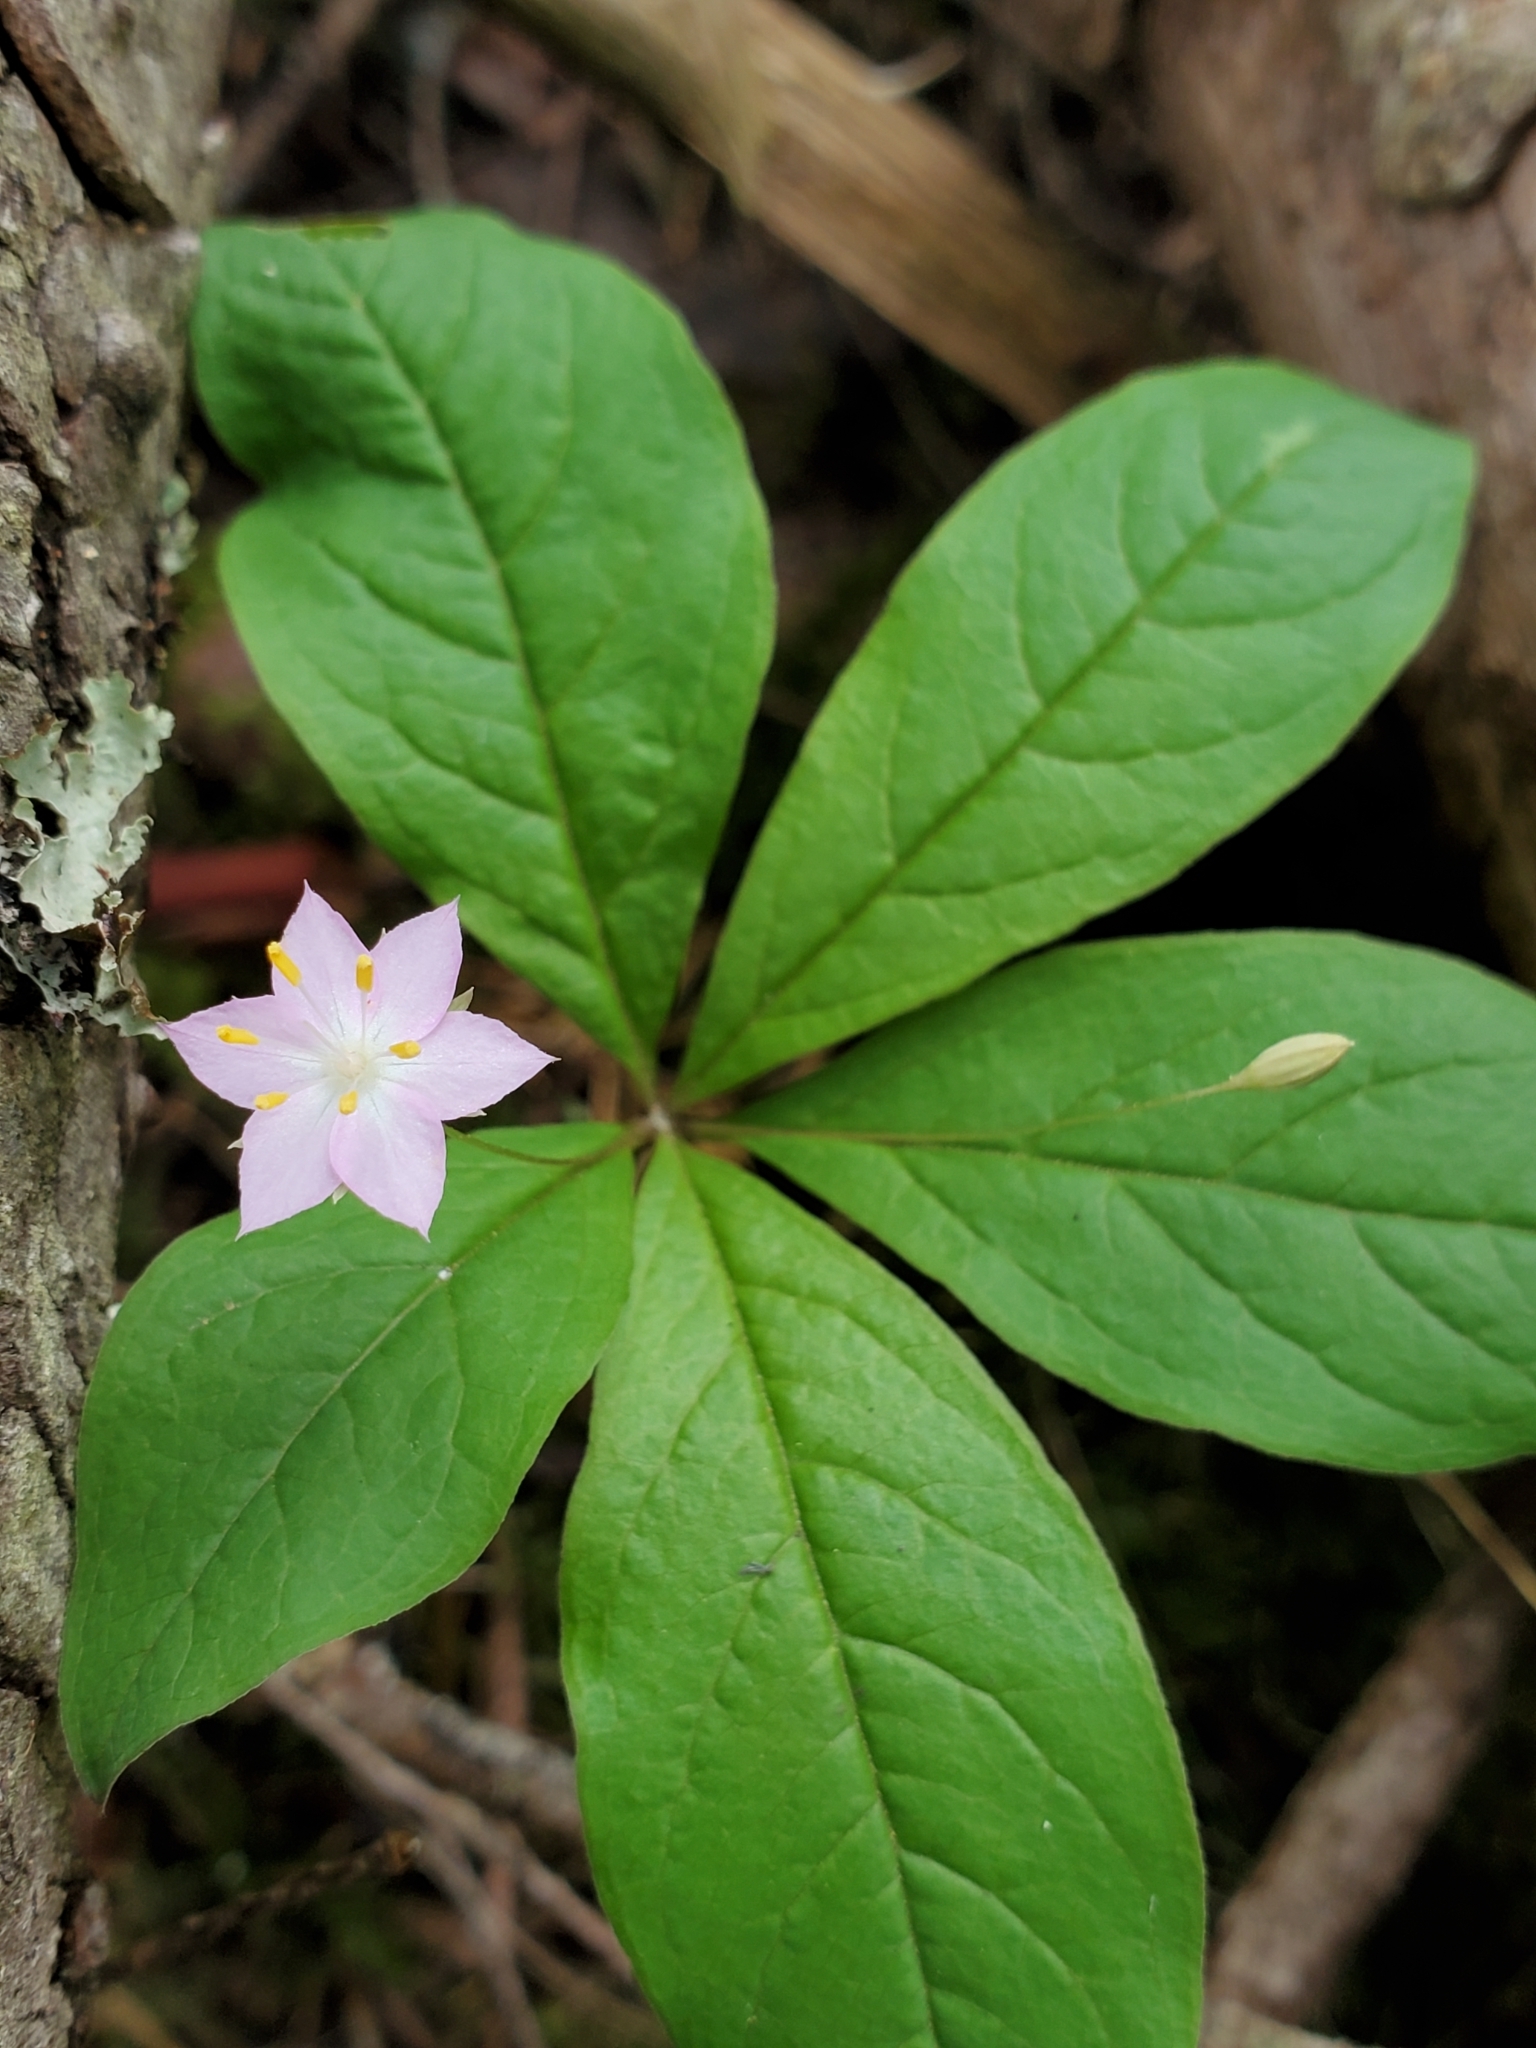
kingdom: Plantae
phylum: Tracheophyta
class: Magnoliopsida
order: Ericales
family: Primulaceae
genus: Lysimachia
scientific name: Lysimachia latifolia
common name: Pacific starflower
